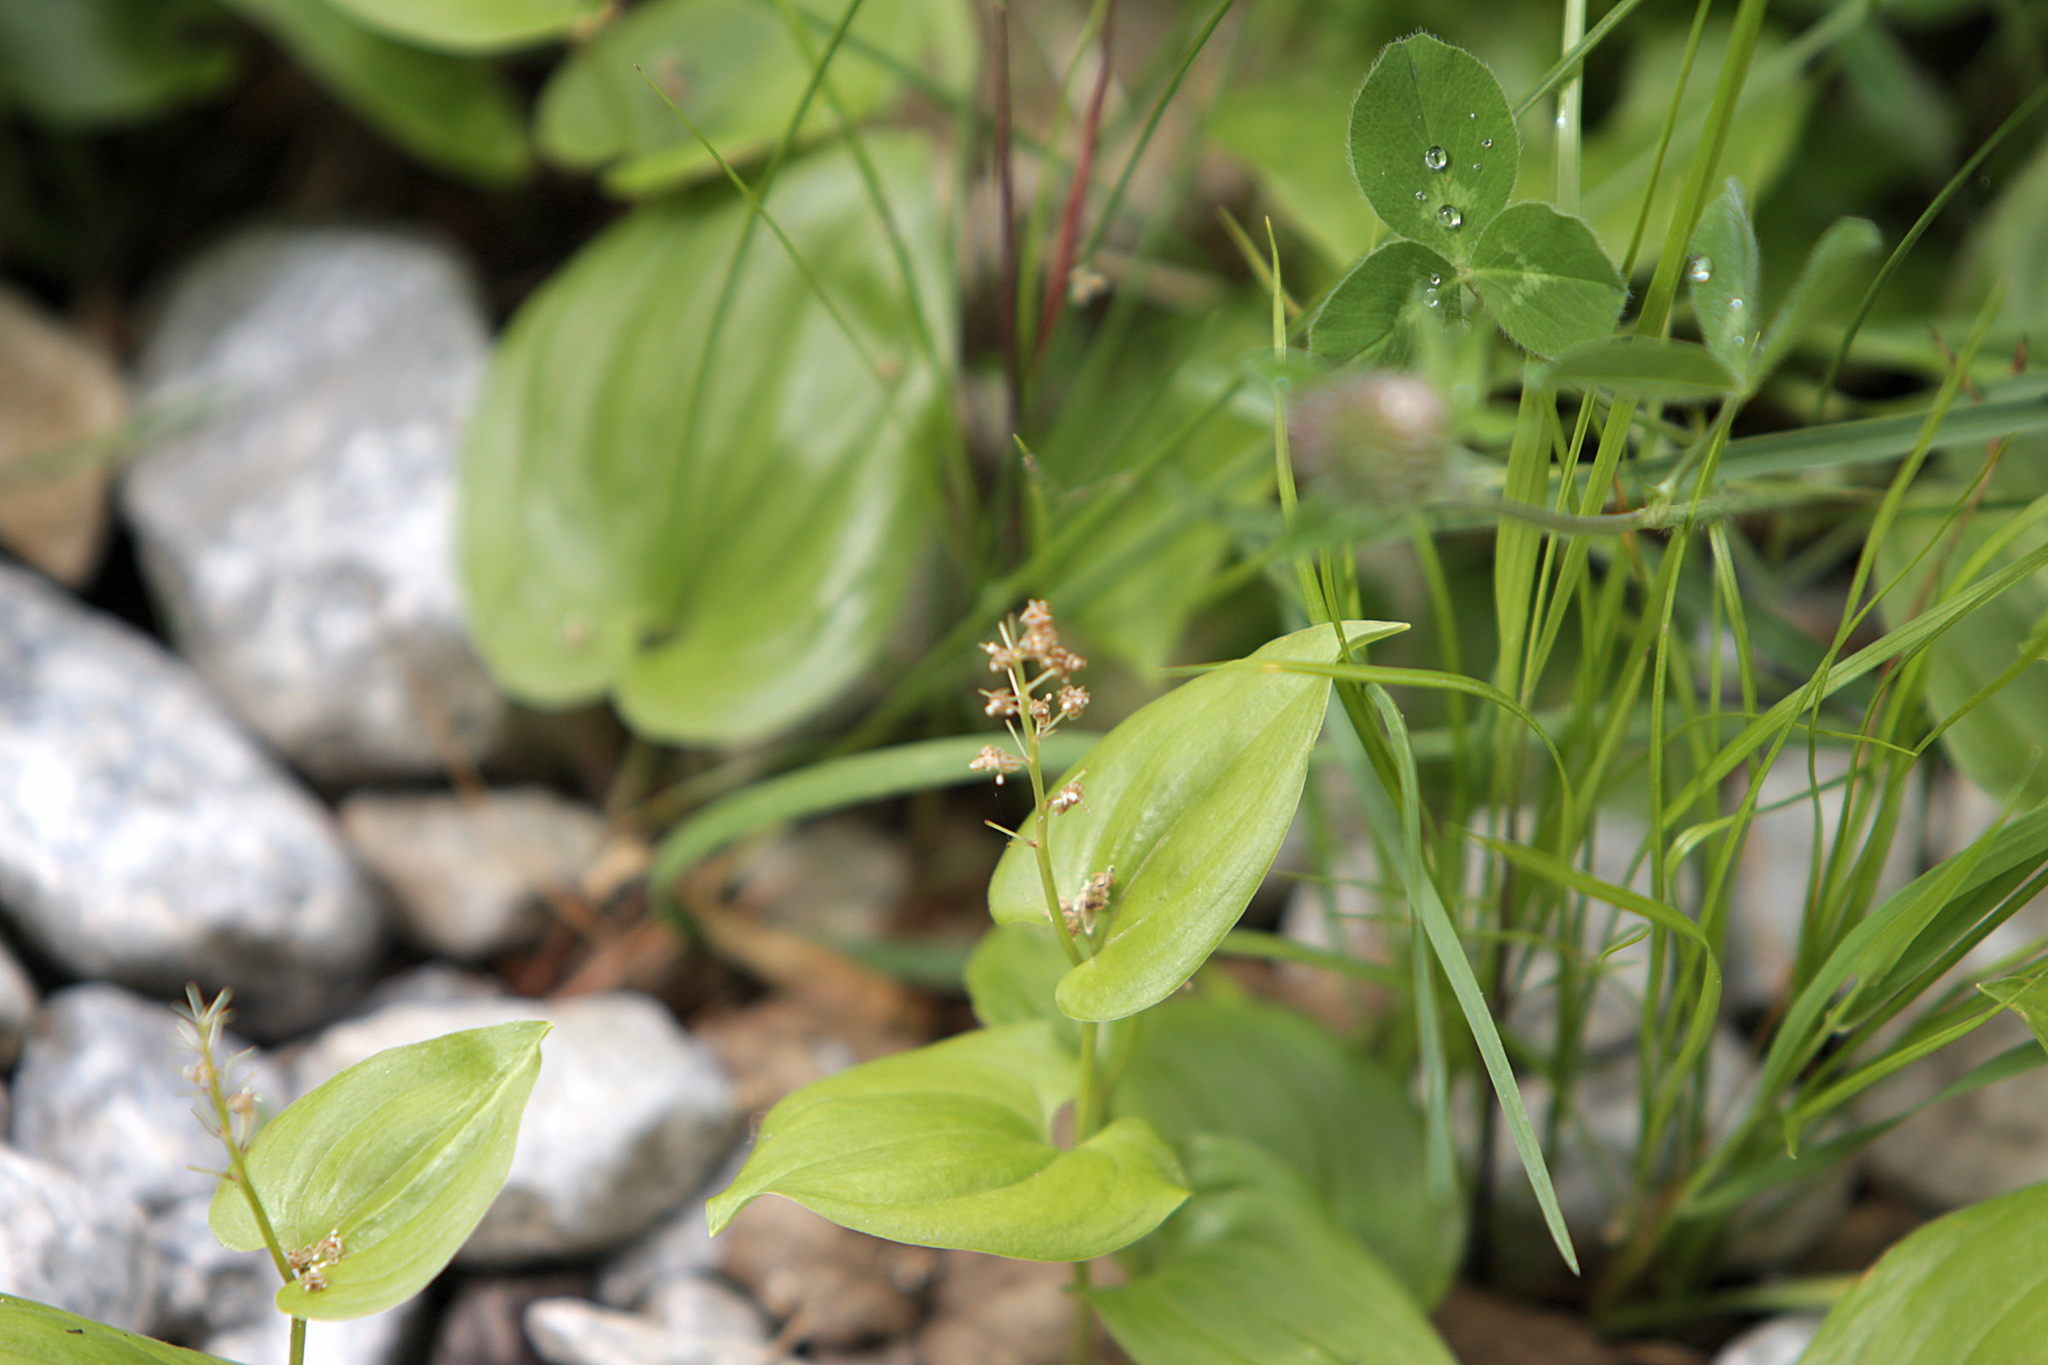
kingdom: Plantae
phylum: Tracheophyta
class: Liliopsida
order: Asparagales
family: Asparagaceae
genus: Maianthemum
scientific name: Maianthemum bifolium
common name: May lily
